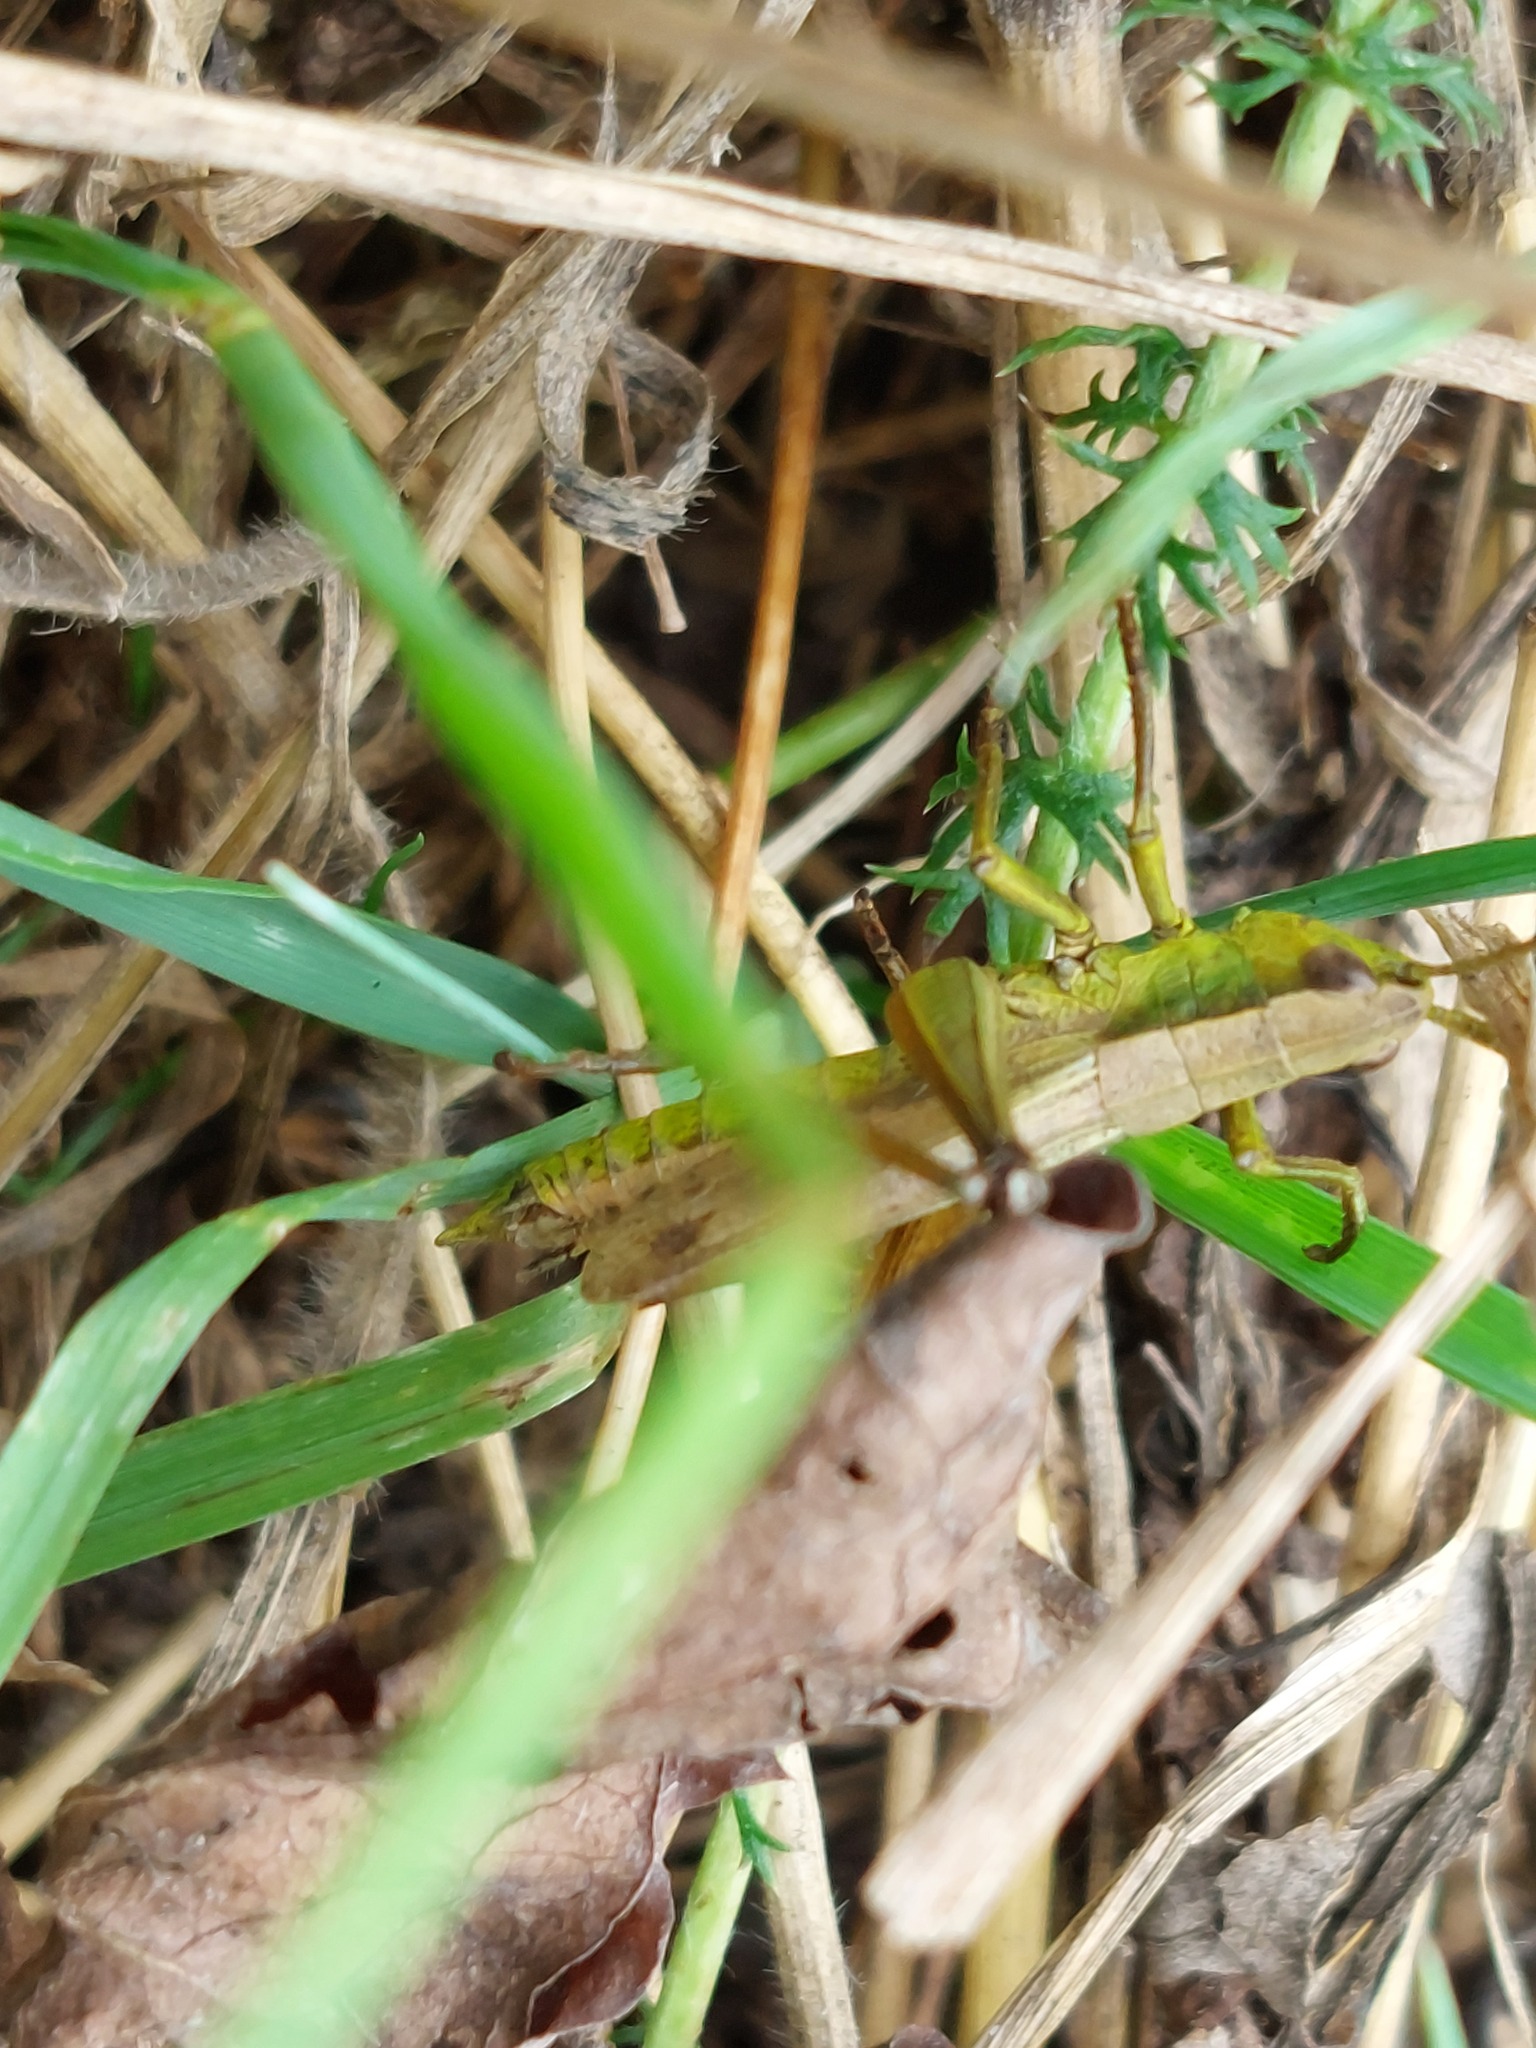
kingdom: Animalia
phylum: Arthropoda
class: Insecta
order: Orthoptera
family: Acrididae
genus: Chrysochraon
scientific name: Chrysochraon dispar
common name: Large gold grasshopper
